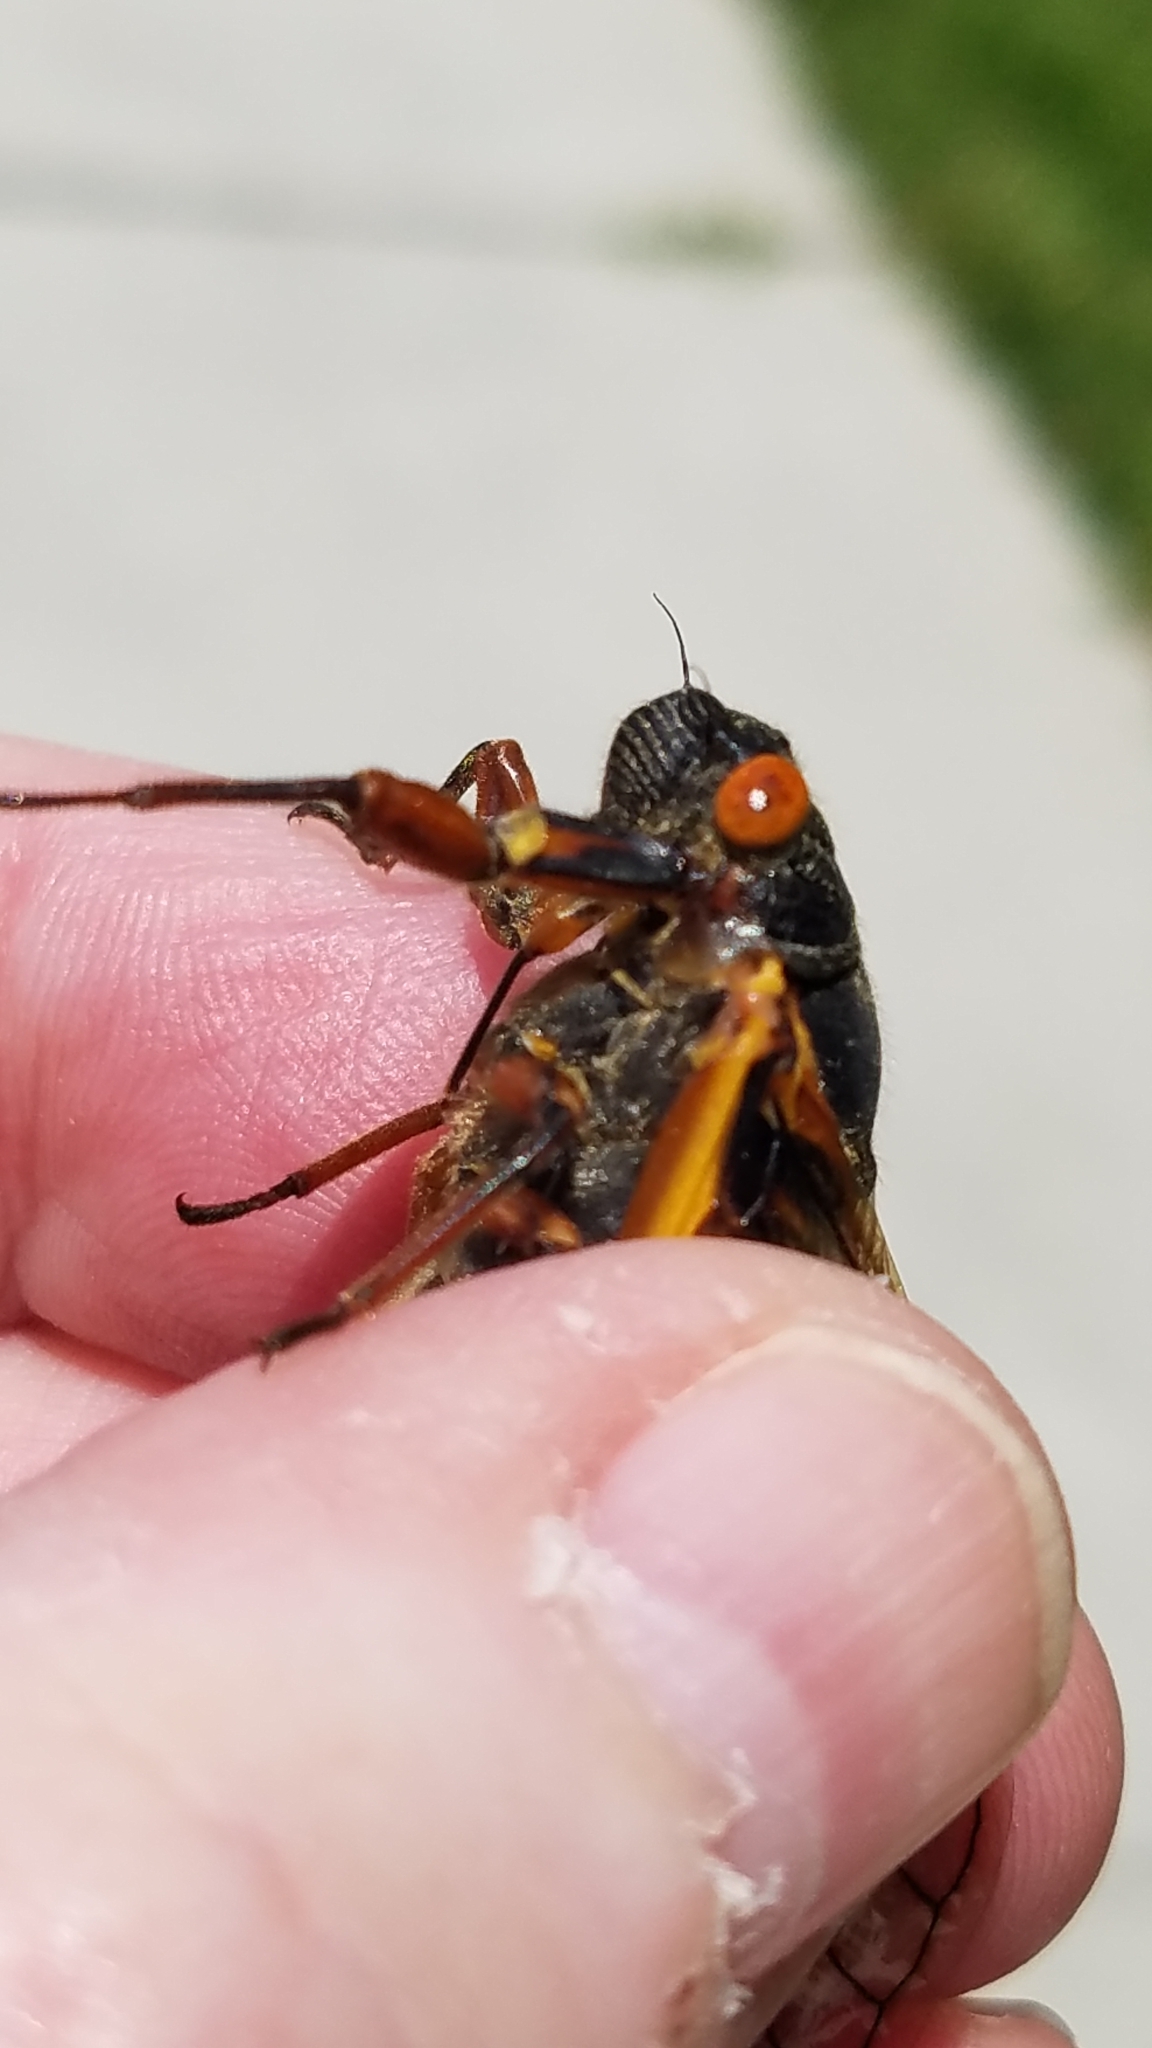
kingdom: Animalia
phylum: Arthropoda
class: Insecta
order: Hemiptera
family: Cicadidae
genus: Magicicada
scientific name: Magicicada septendecim
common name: Periodical cicada
